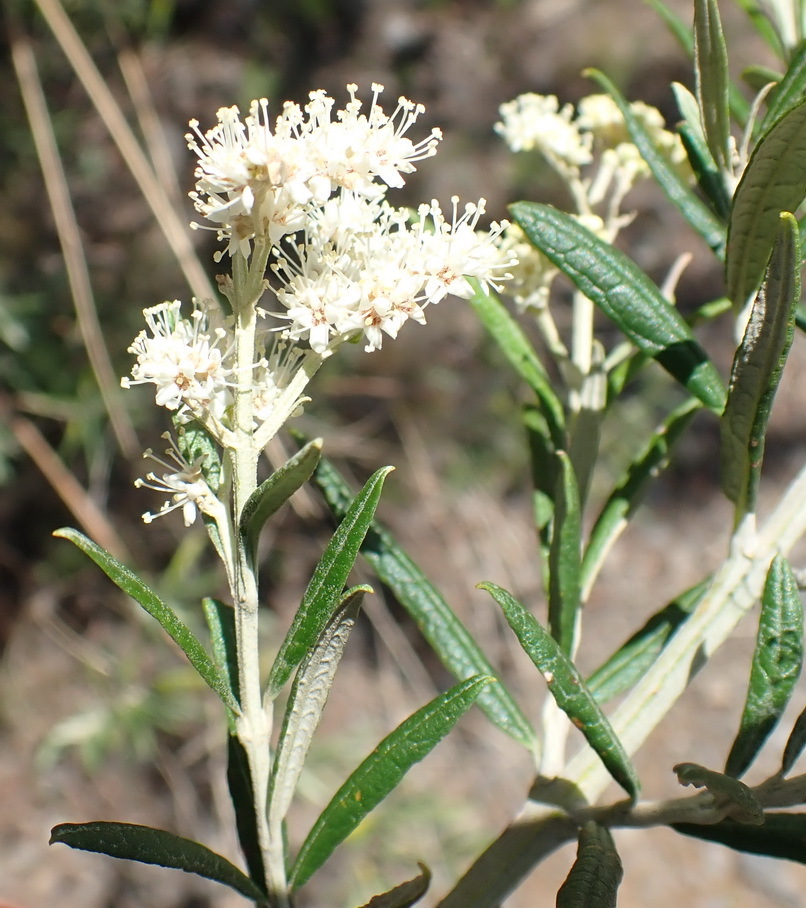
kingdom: Plantae
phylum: Tracheophyta
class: Magnoliopsida
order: Lamiales
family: Scrophulariaceae
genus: Buddleja
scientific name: Buddleja saligna
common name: False olive
